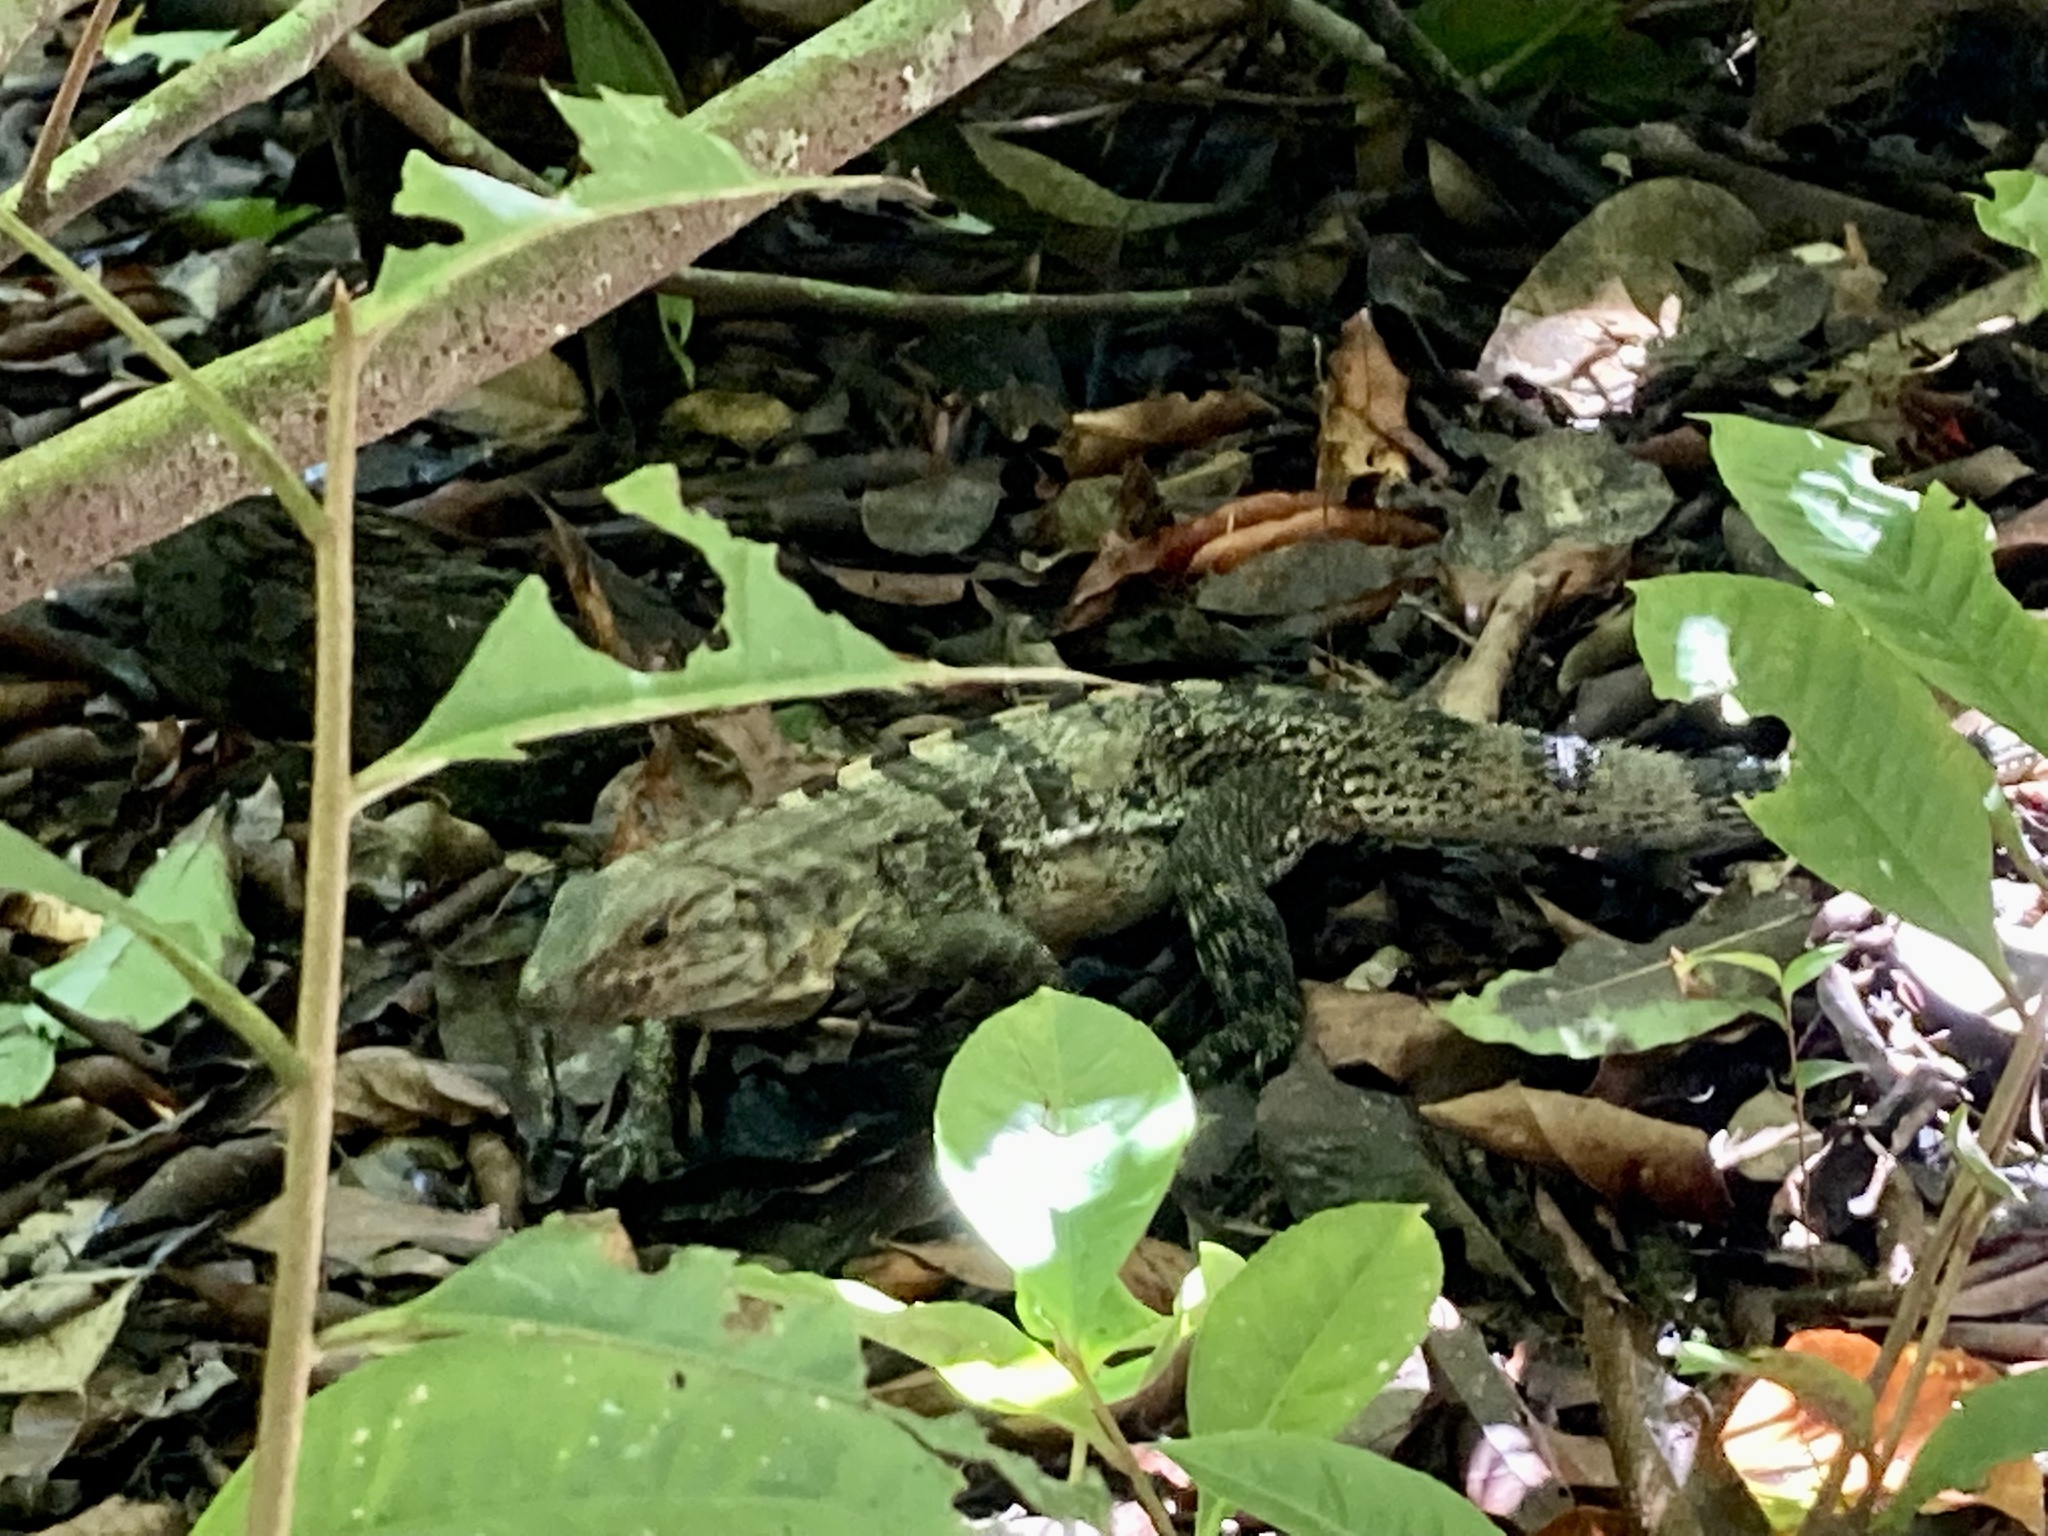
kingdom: Animalia
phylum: Chordata
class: Squamata
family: Iguanidae
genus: Ctenosaura
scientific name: Ctenosaura similis
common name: Black spiny-tailed iguana
